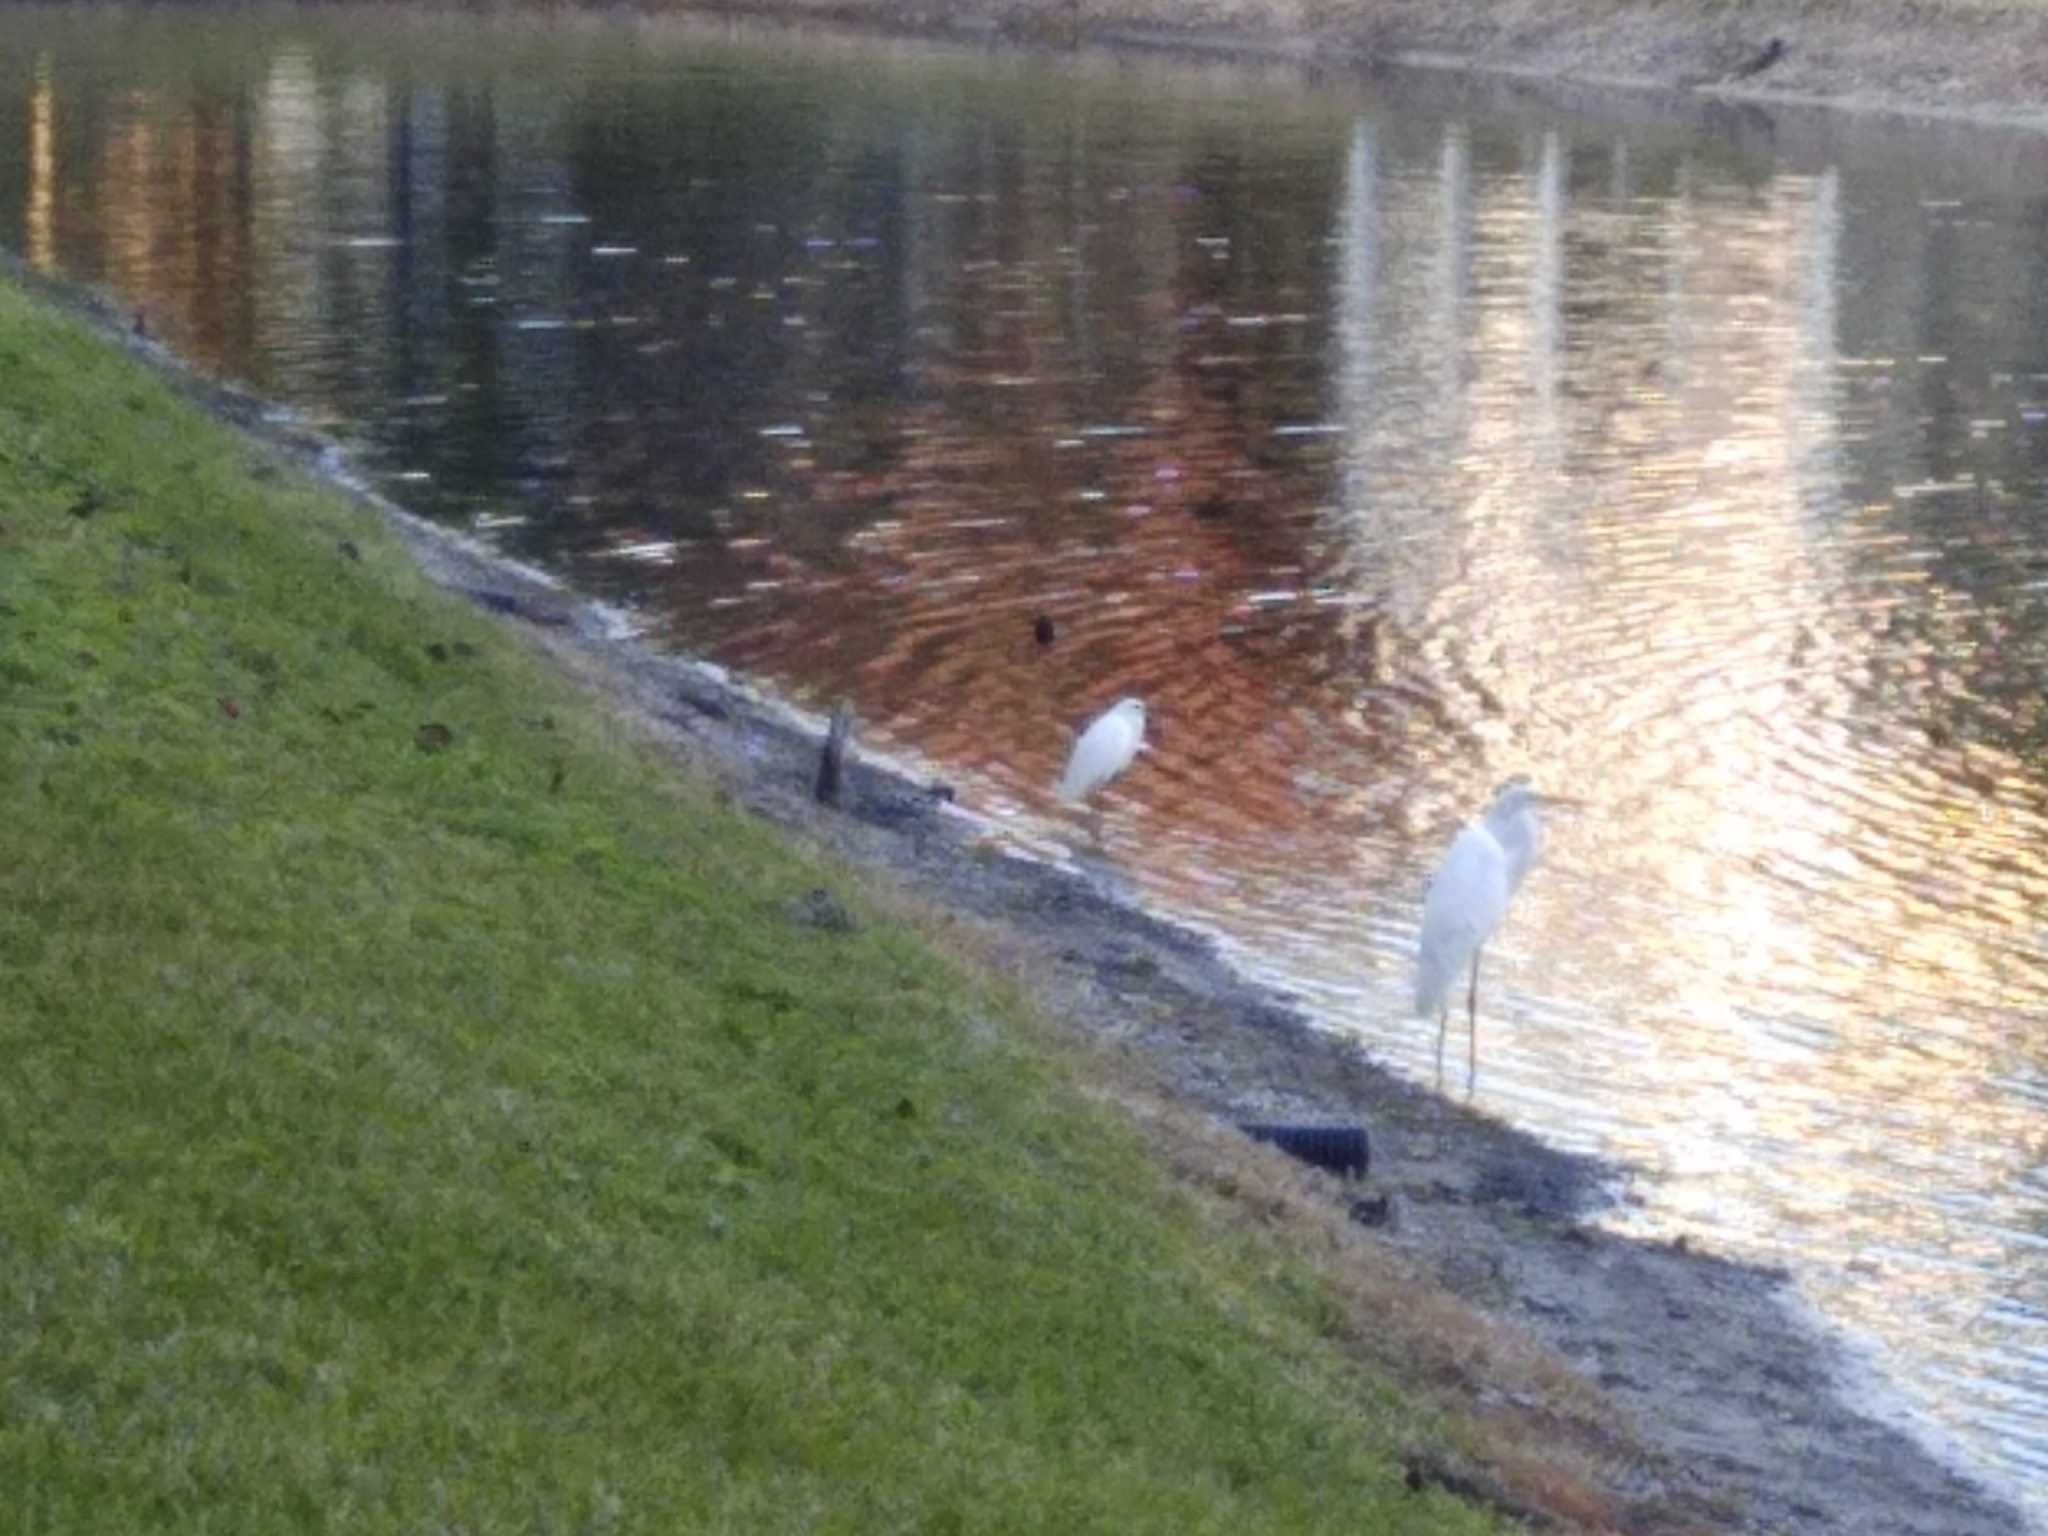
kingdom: Animalia
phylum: Chordata
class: Aves
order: Pelecaniformes
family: Ardeidae
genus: Egretta
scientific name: Egretta thula
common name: Snowy egret
